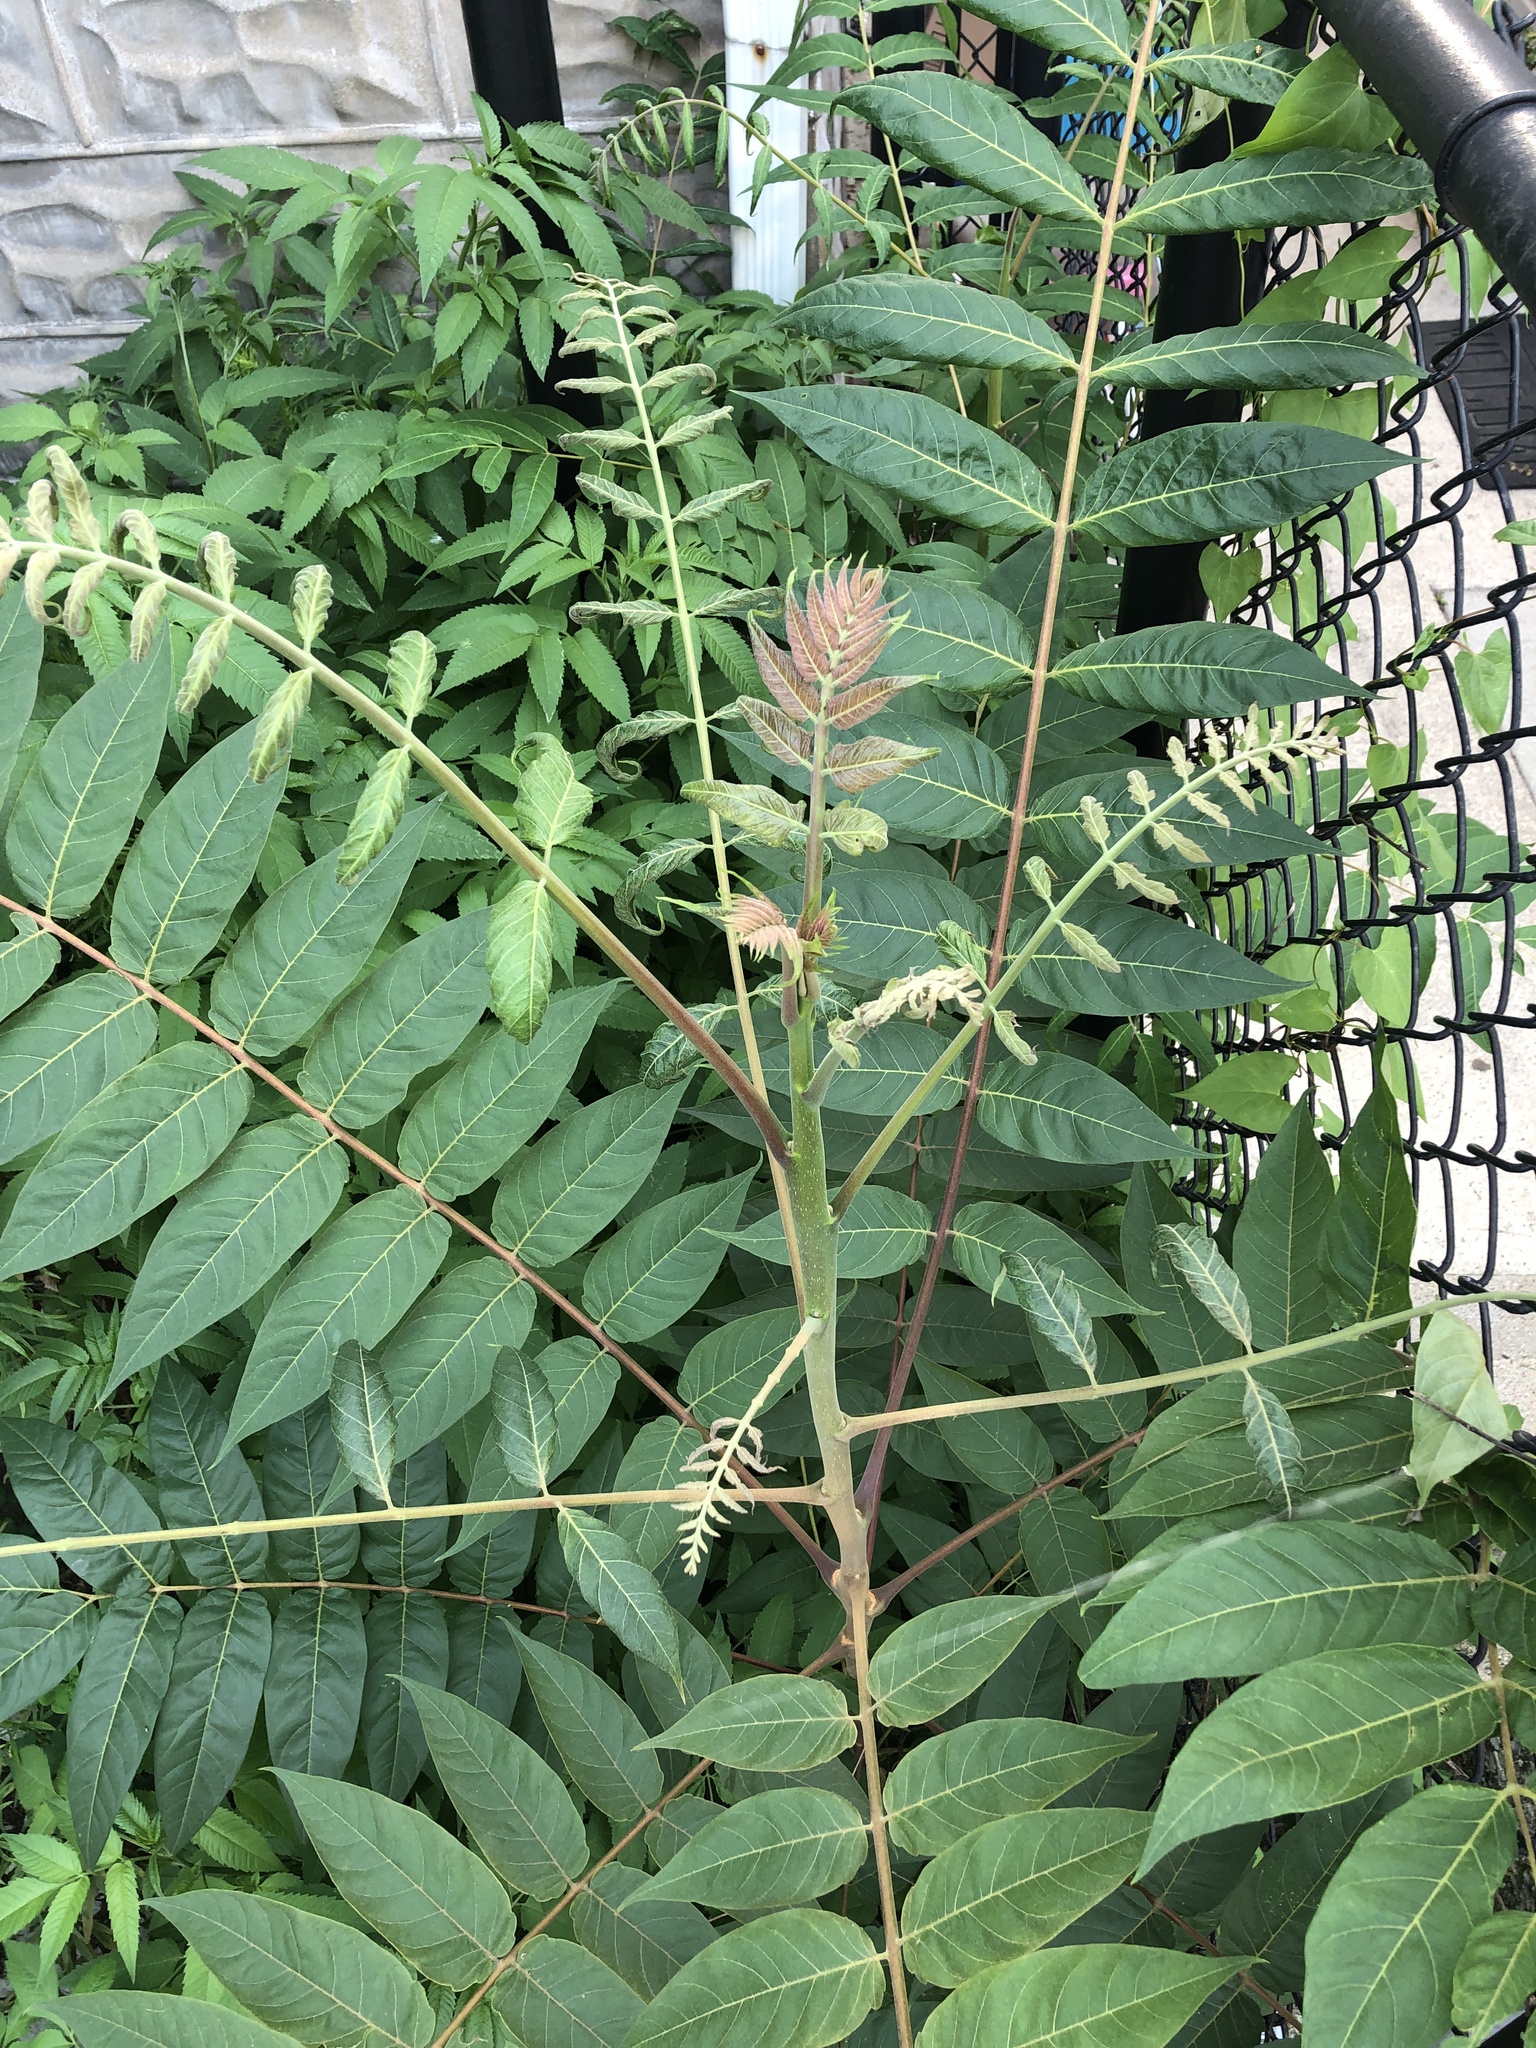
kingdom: Plantae
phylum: Tracheophyta
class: Magnoliopsida
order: Sapindales
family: Simaroubaceae
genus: Ailanthus
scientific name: Ailanthus altissima
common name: Tree-of-heaven
